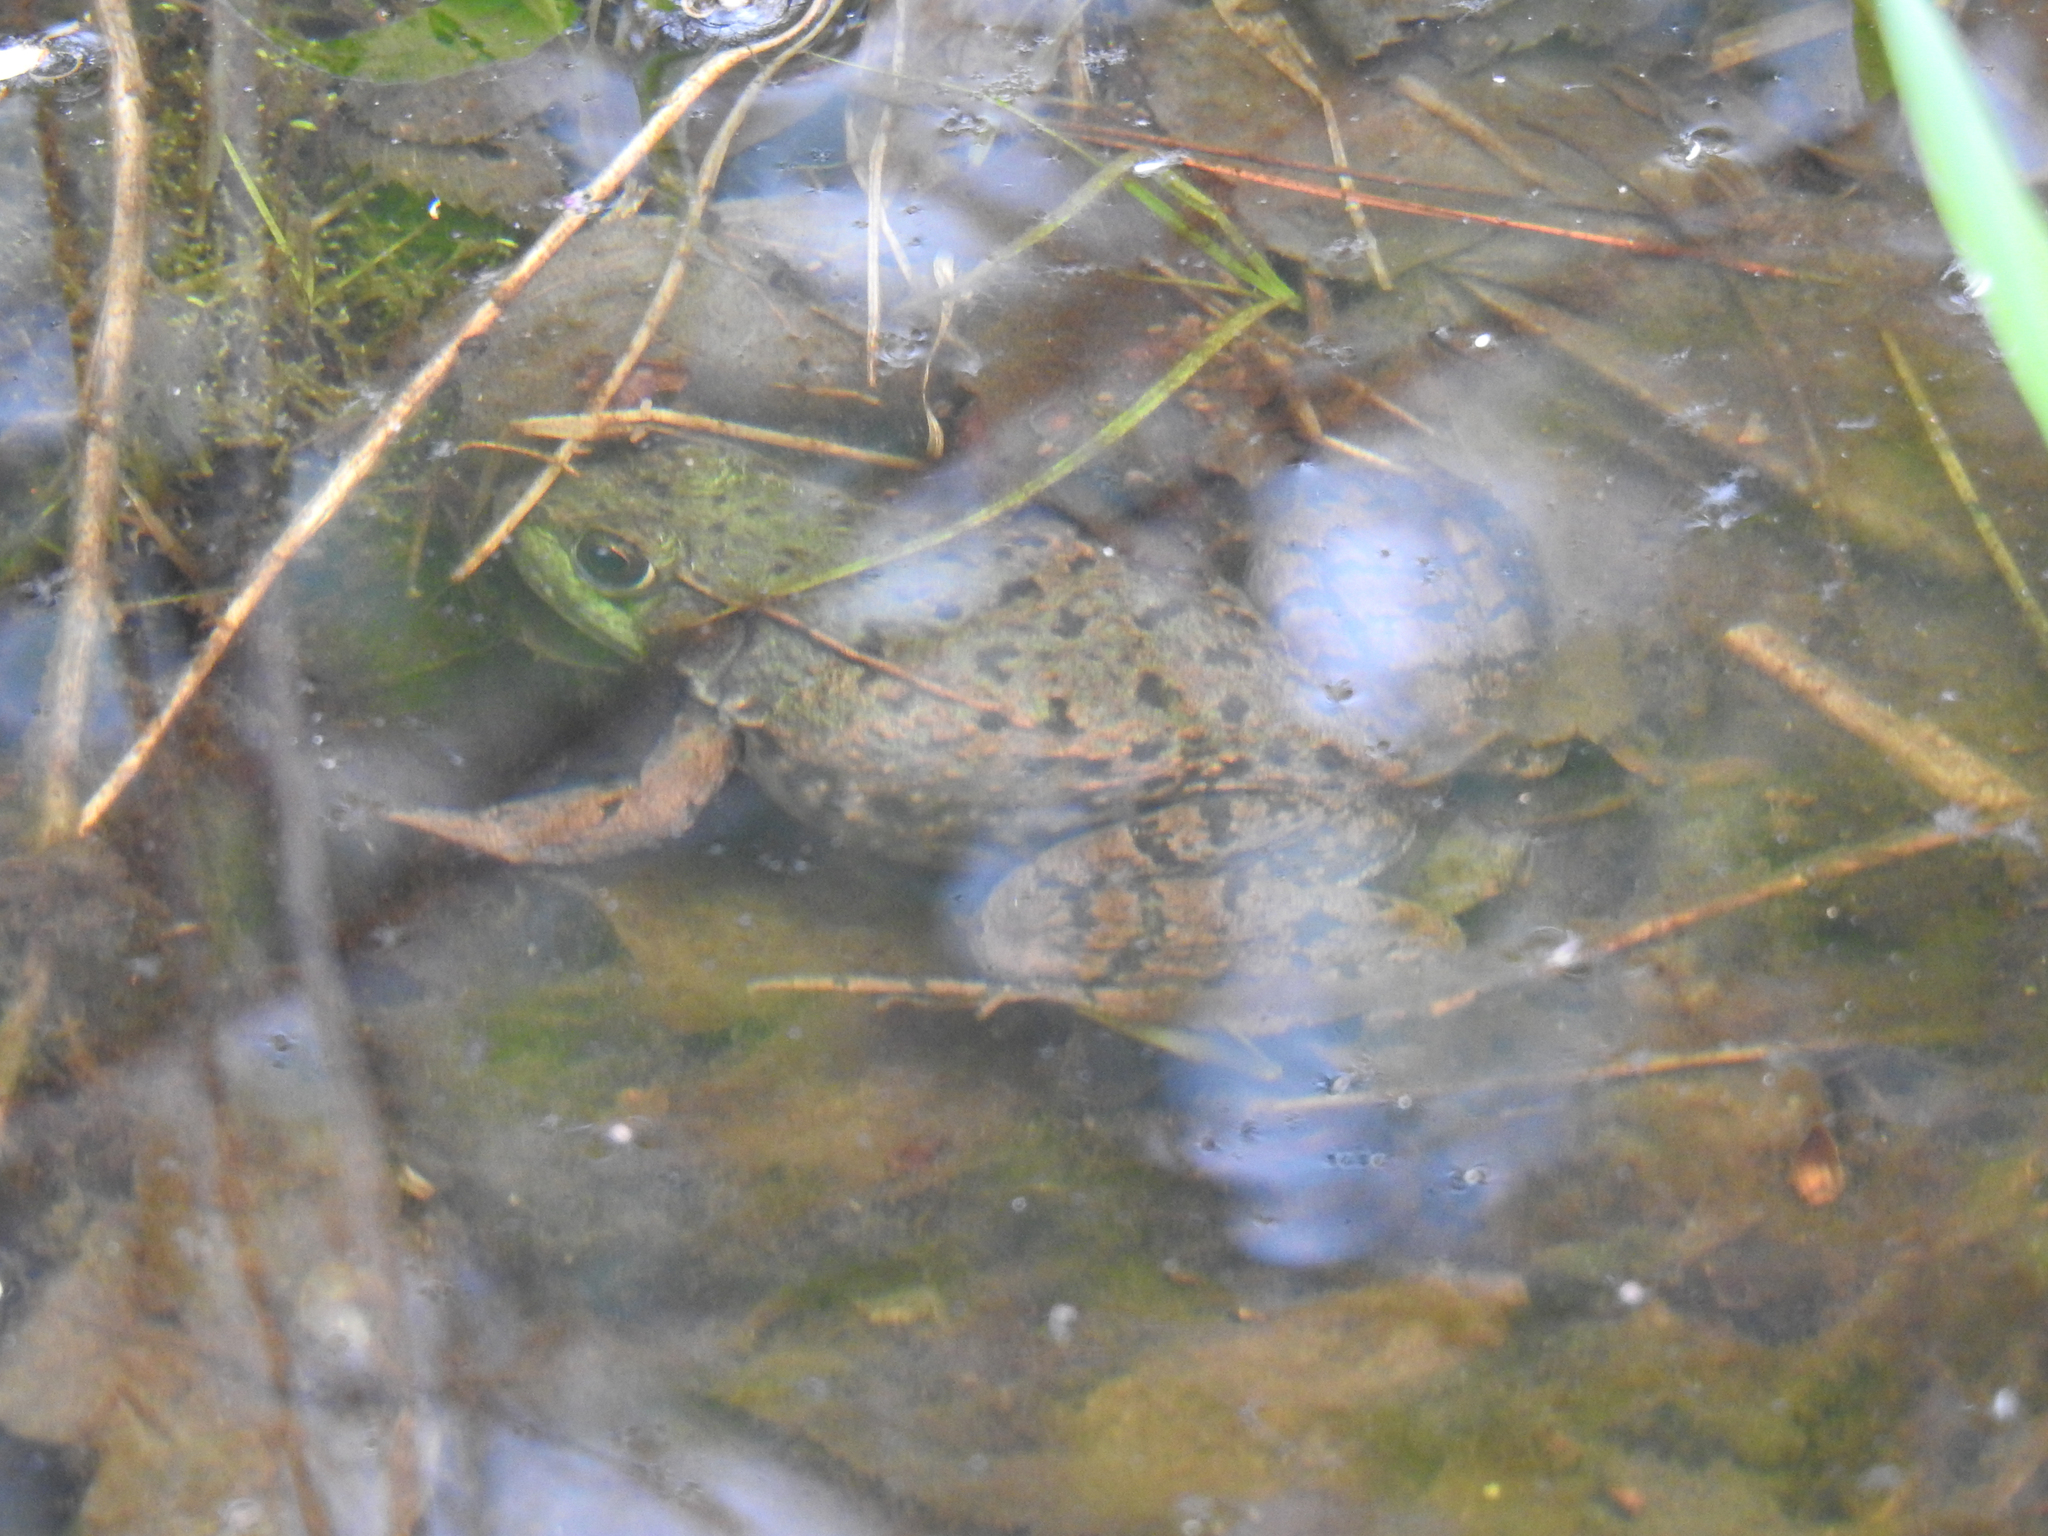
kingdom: Animalia
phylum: Chordata
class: Amphibia
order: Anura
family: Ranidae
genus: Lithobates
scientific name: Lithobates clamitans
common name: Green frog
